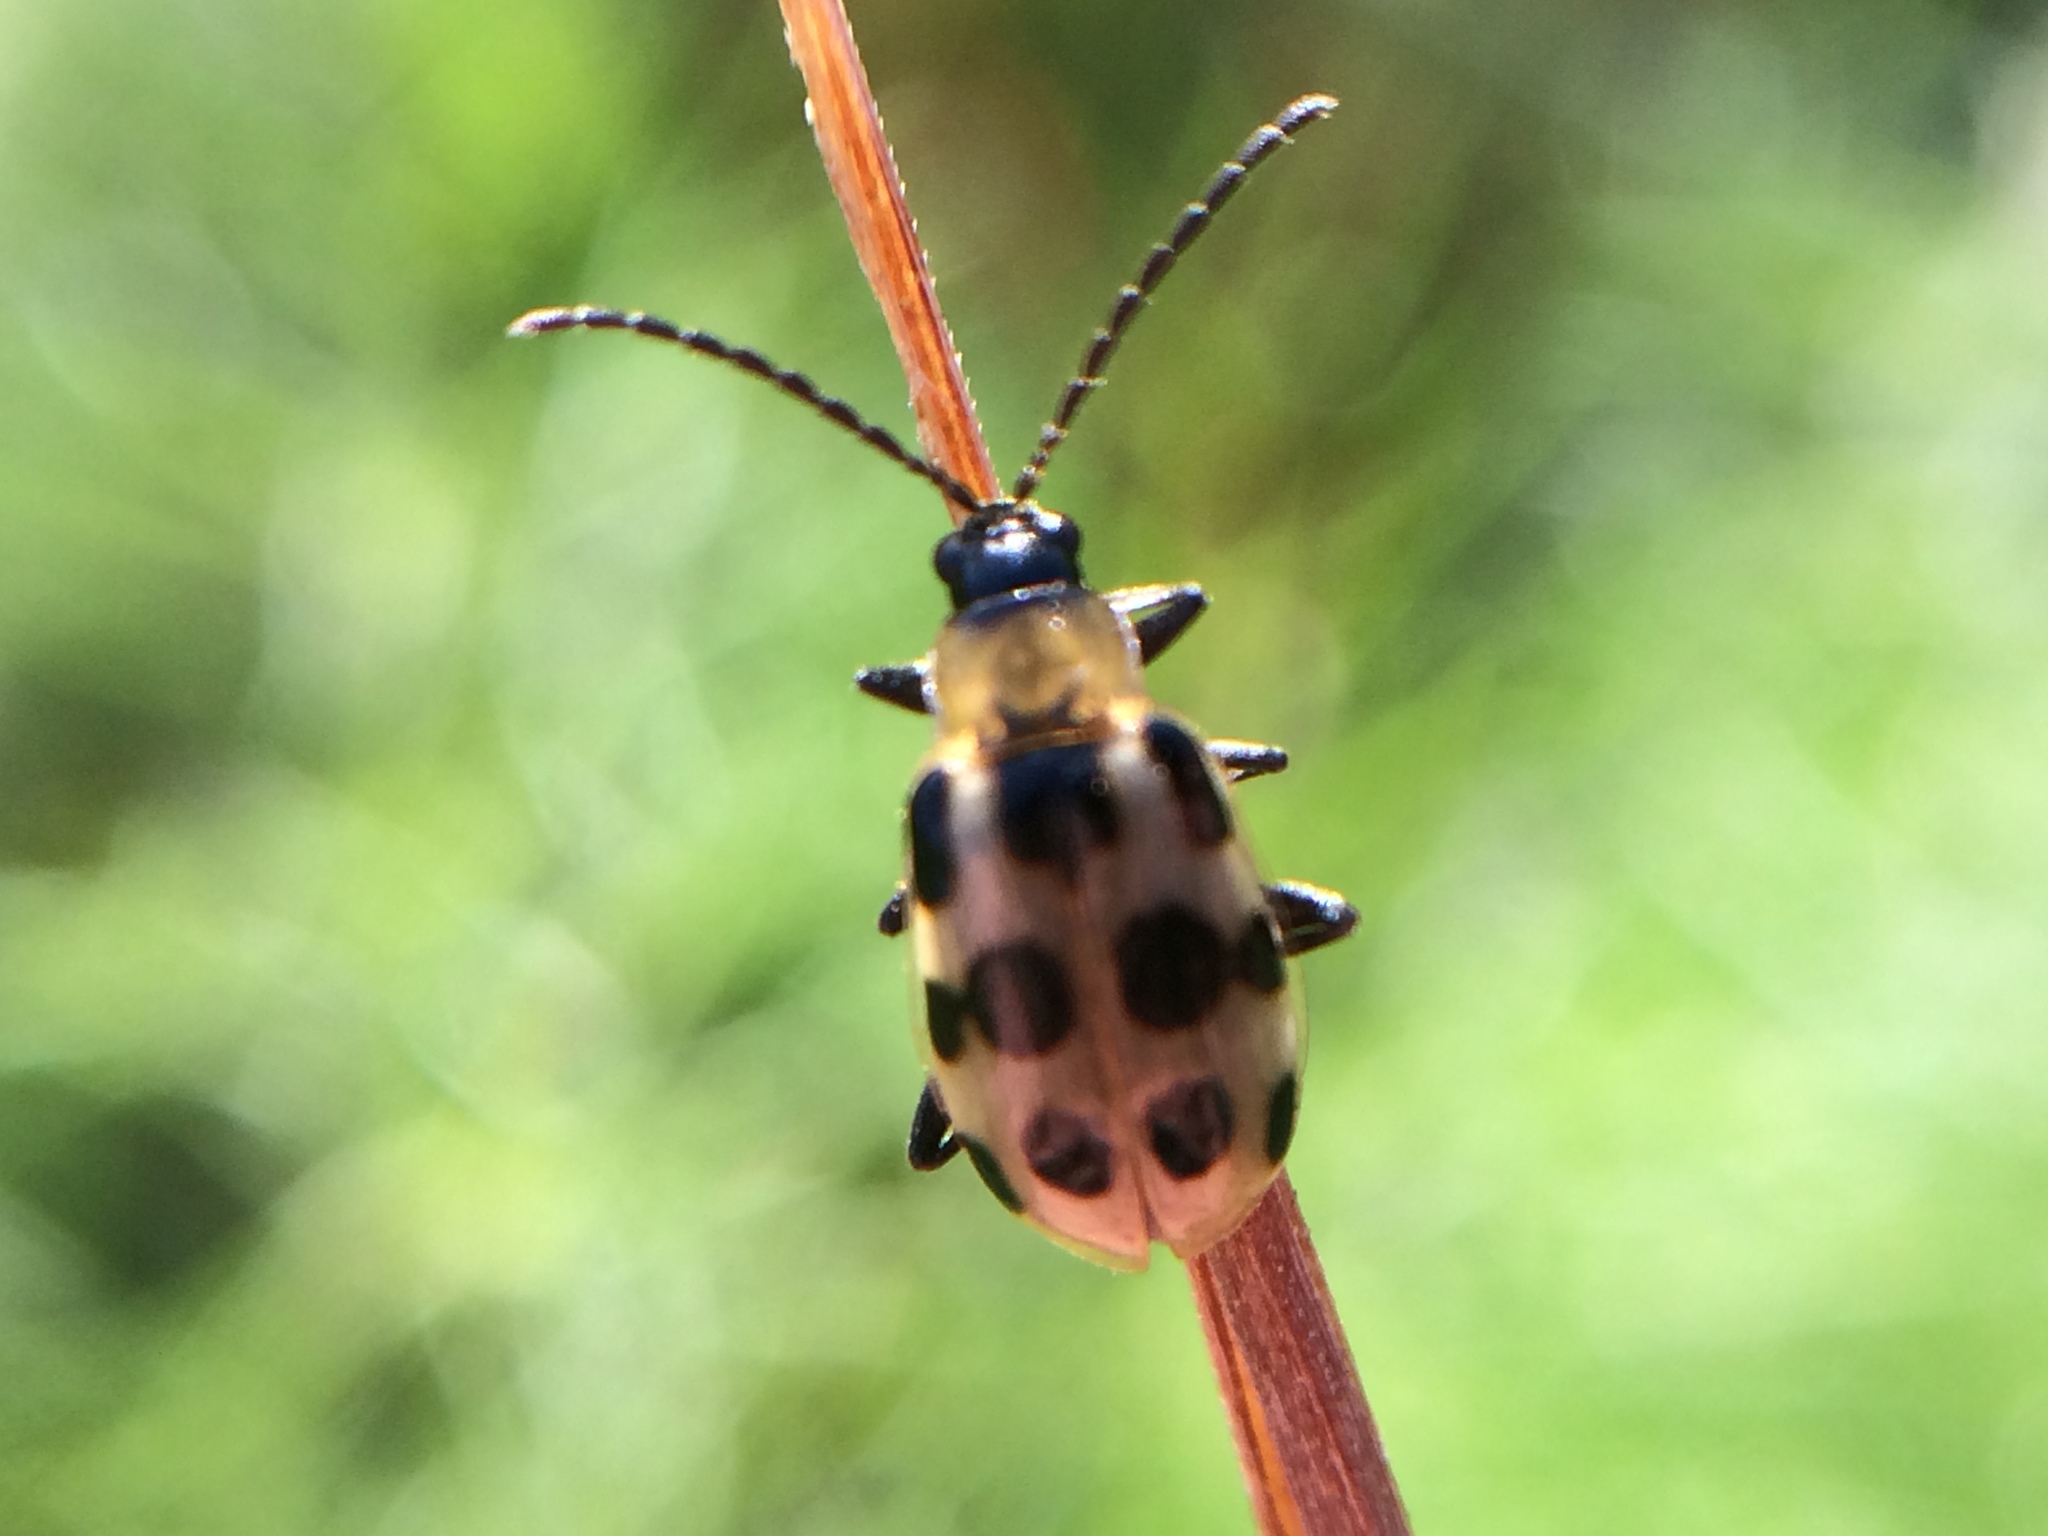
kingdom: Animalia
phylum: Arthropoda
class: Insecta
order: Coleoptera
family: Chrysomelidae
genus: Diabrotica
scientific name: Diabrotica undecimpunctata
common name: Spotted cucumber beetle
